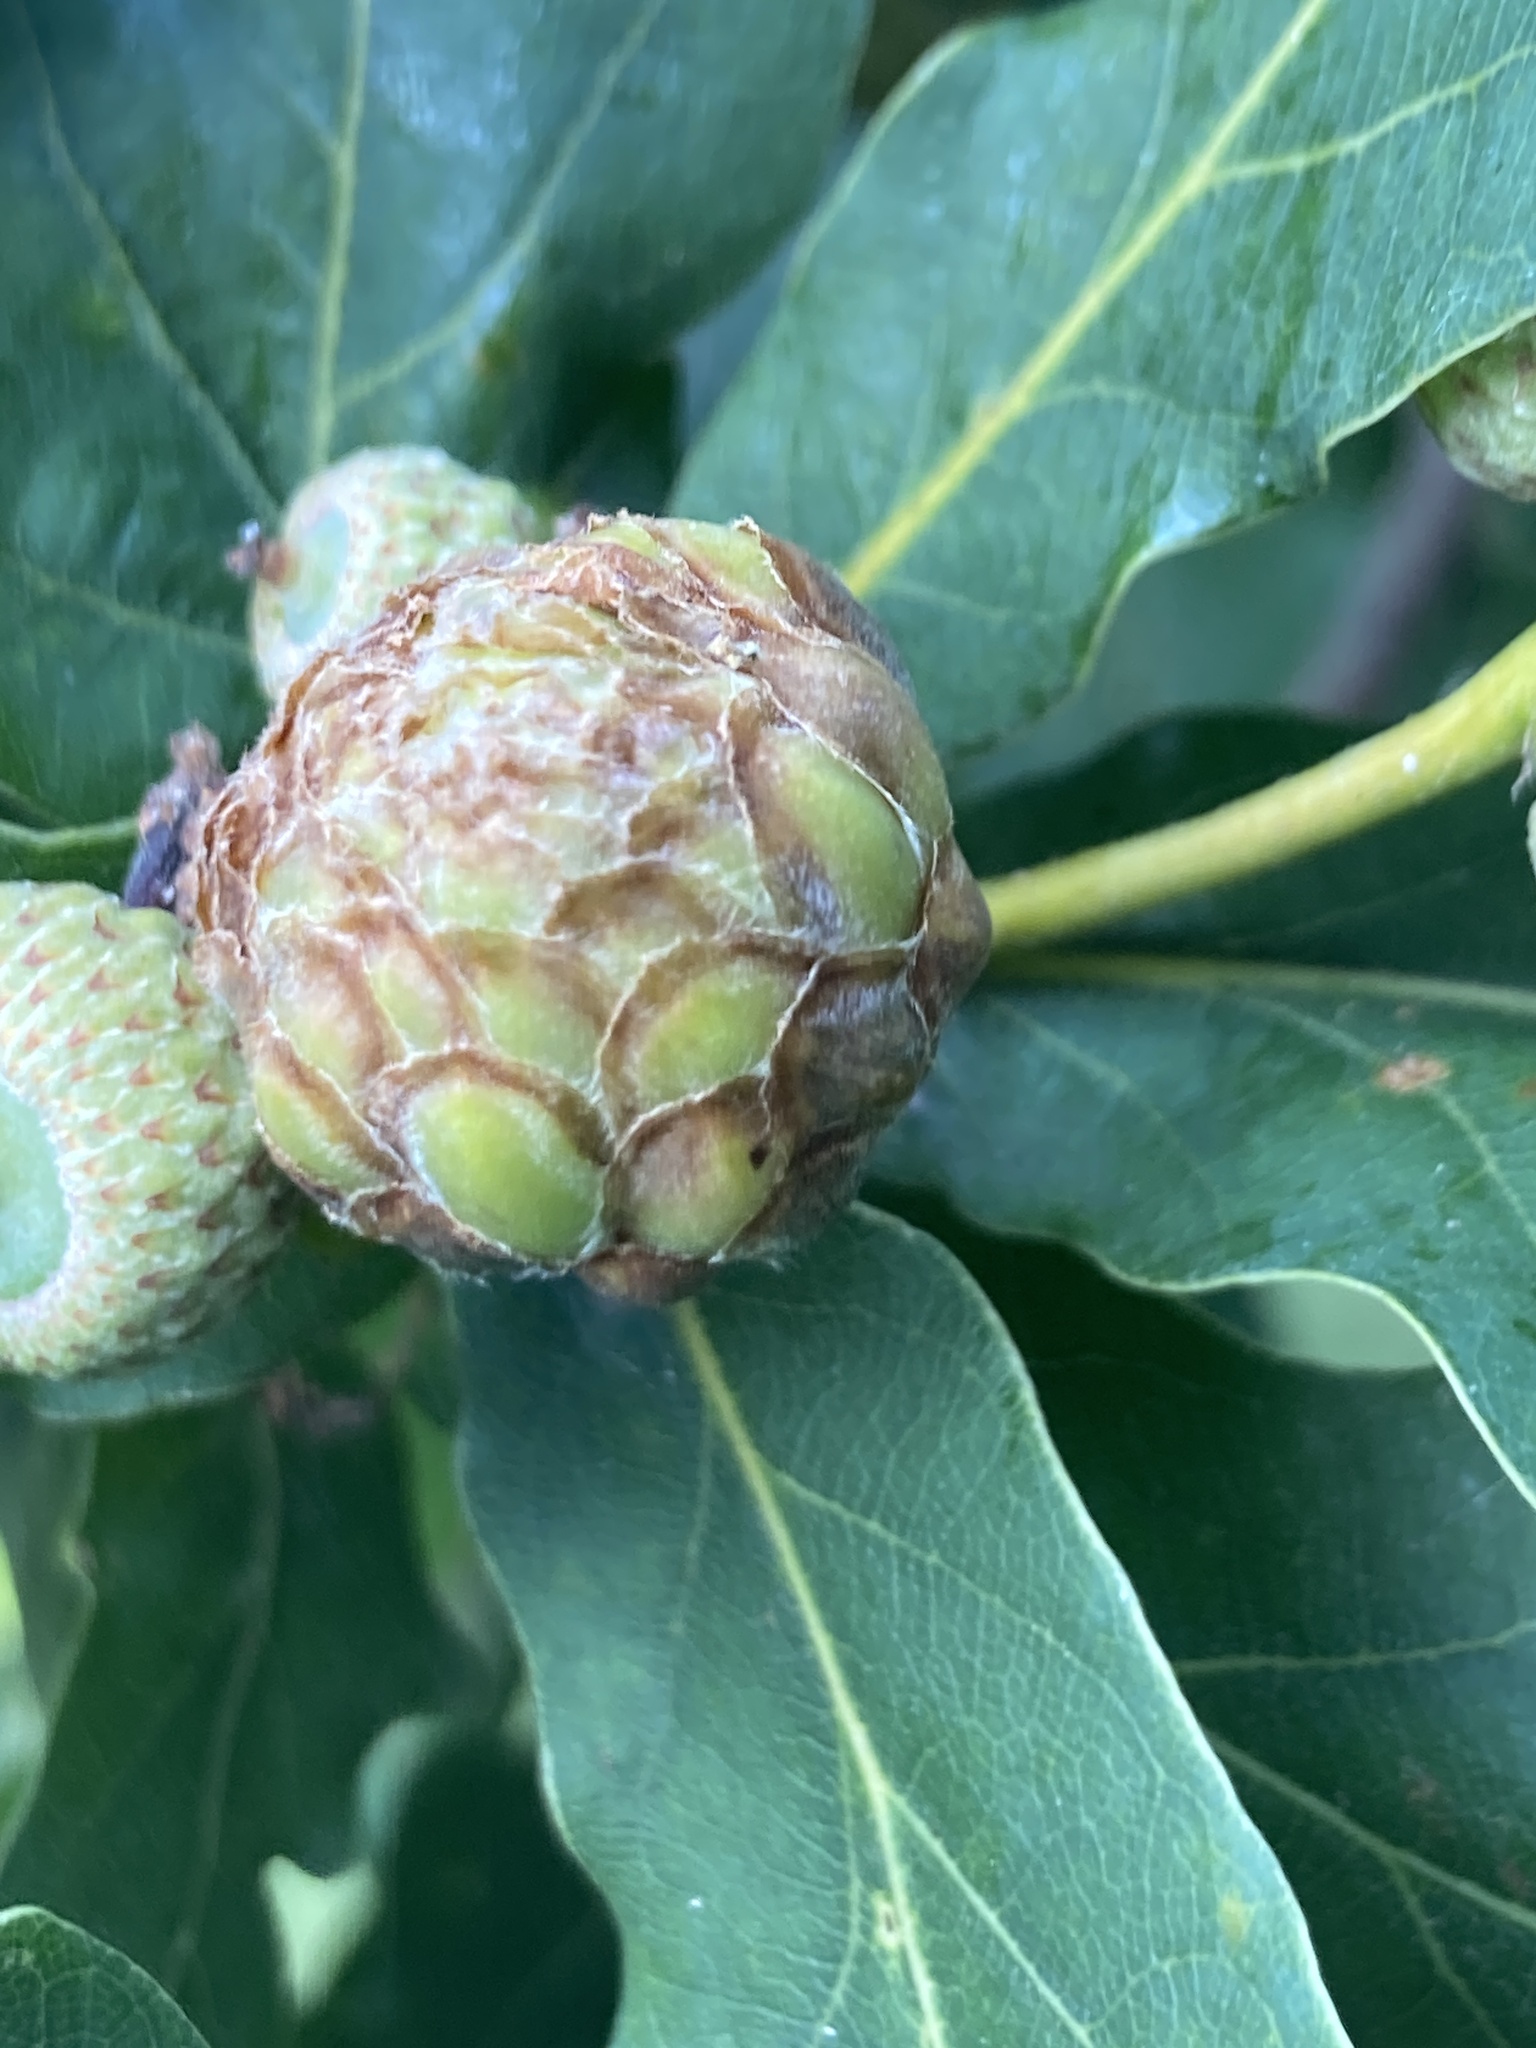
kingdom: Animalia
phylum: Arthropoda
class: Insecta
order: Hymenoptera
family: Cynipidae
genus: Andricus
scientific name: Andricus foecundatrix
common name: Artichoke gall
